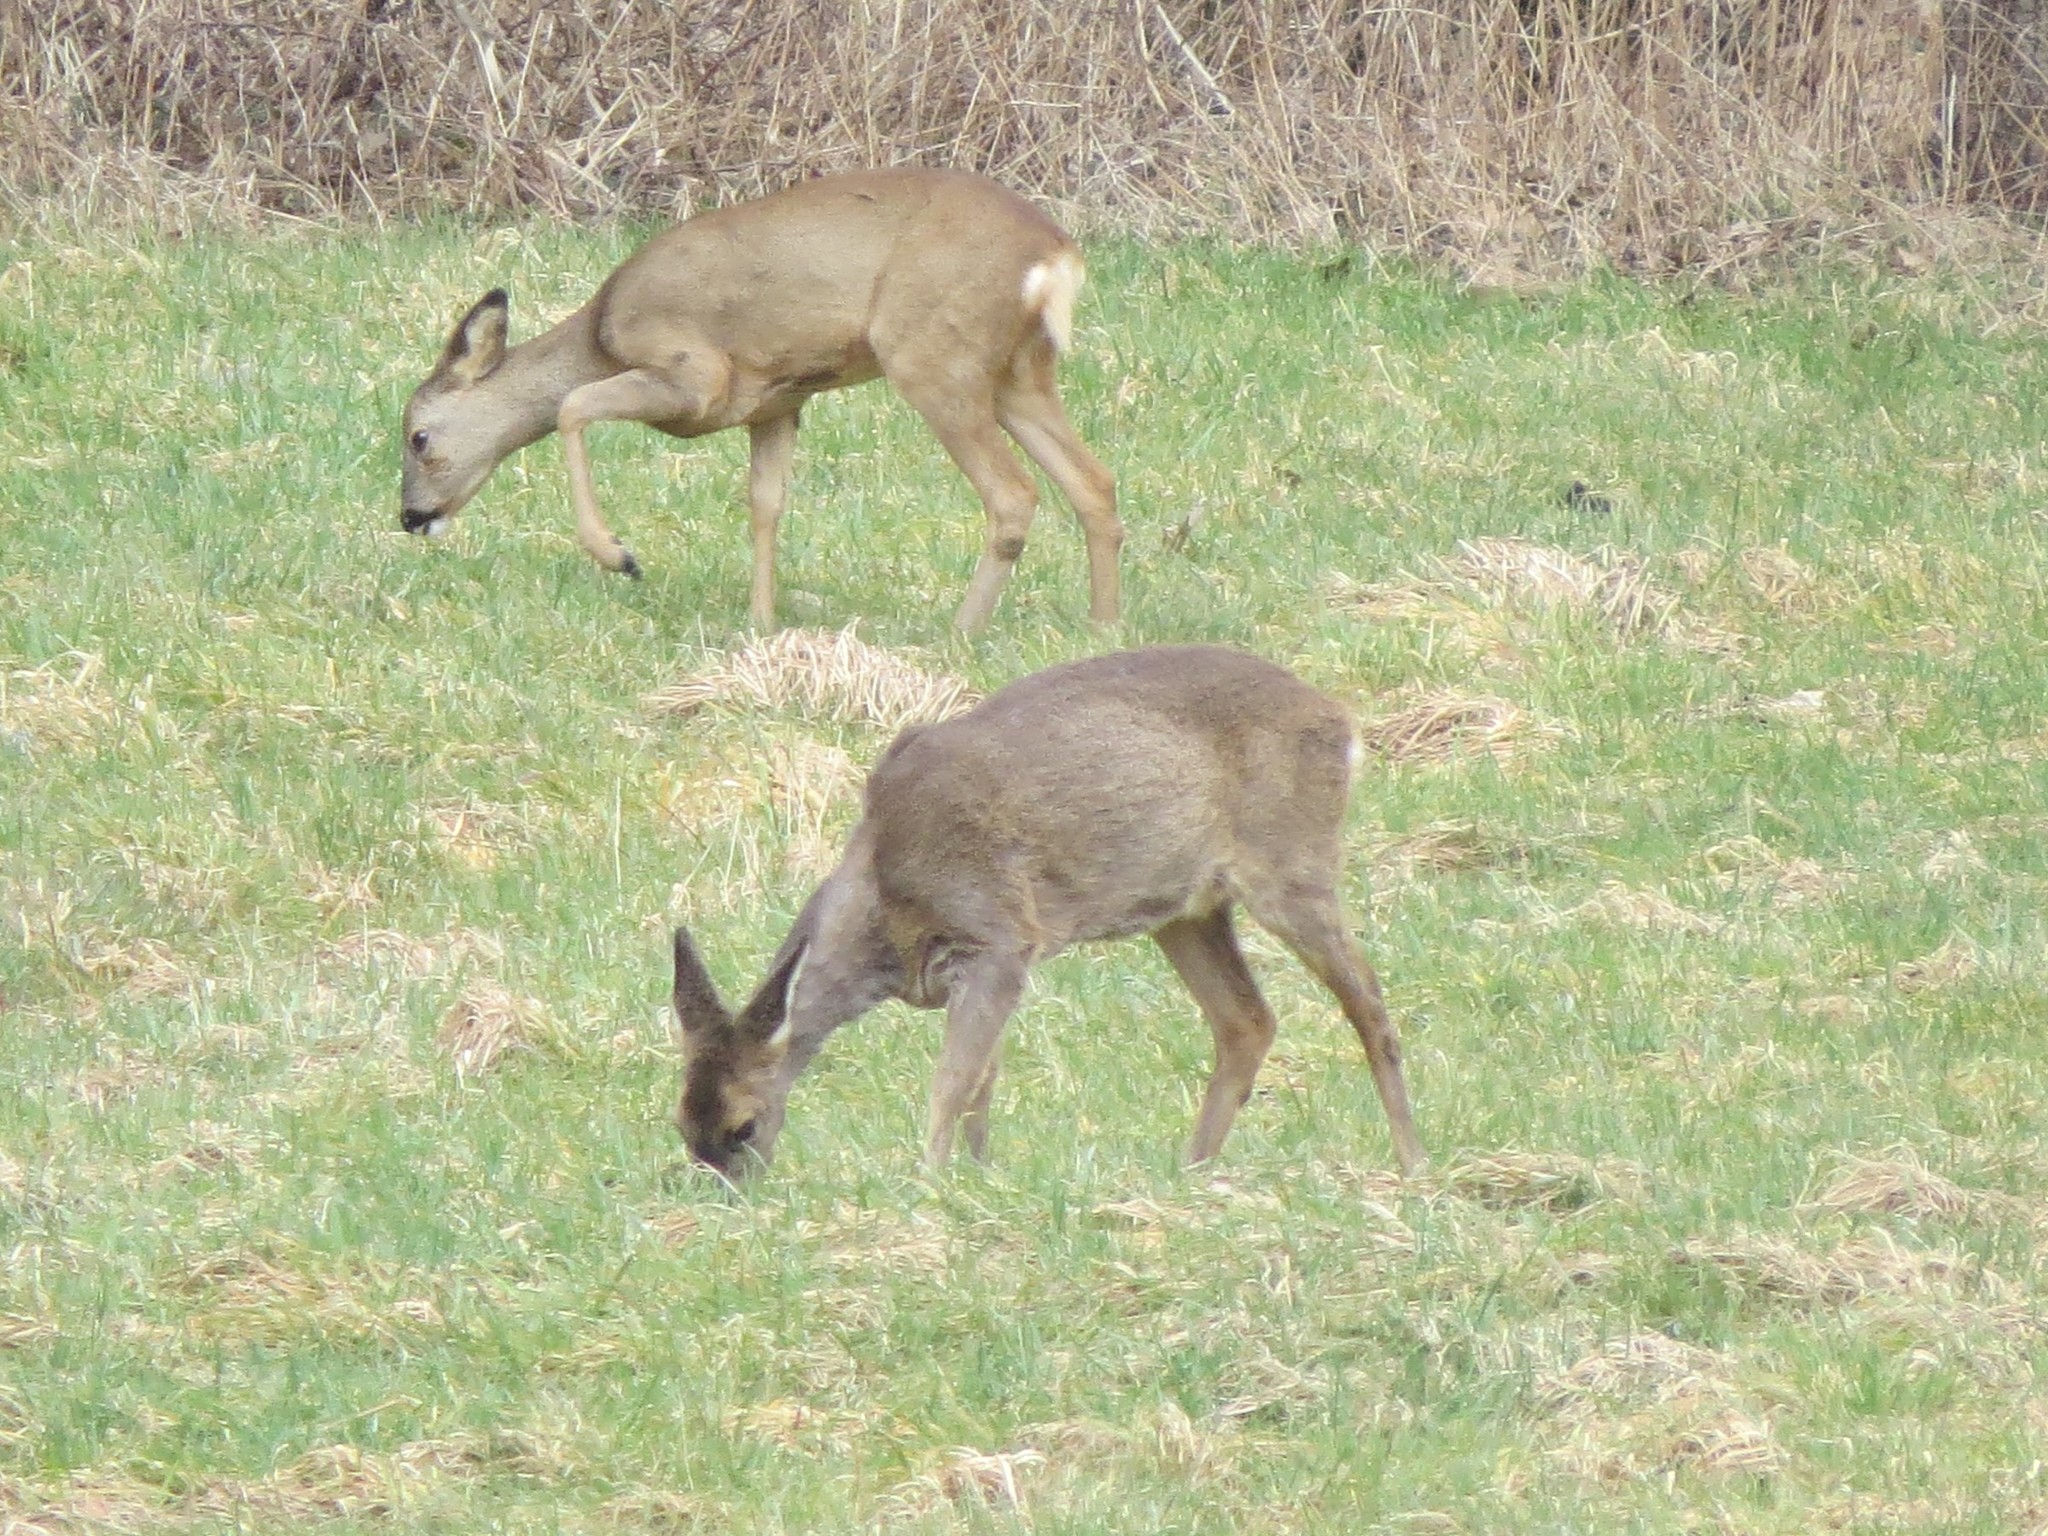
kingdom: Animalia
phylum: Chordata
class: Mammalia
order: Artiodactyla
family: Cervidae
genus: Capreolus
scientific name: Capreolus capreolus
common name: Western roe deer
